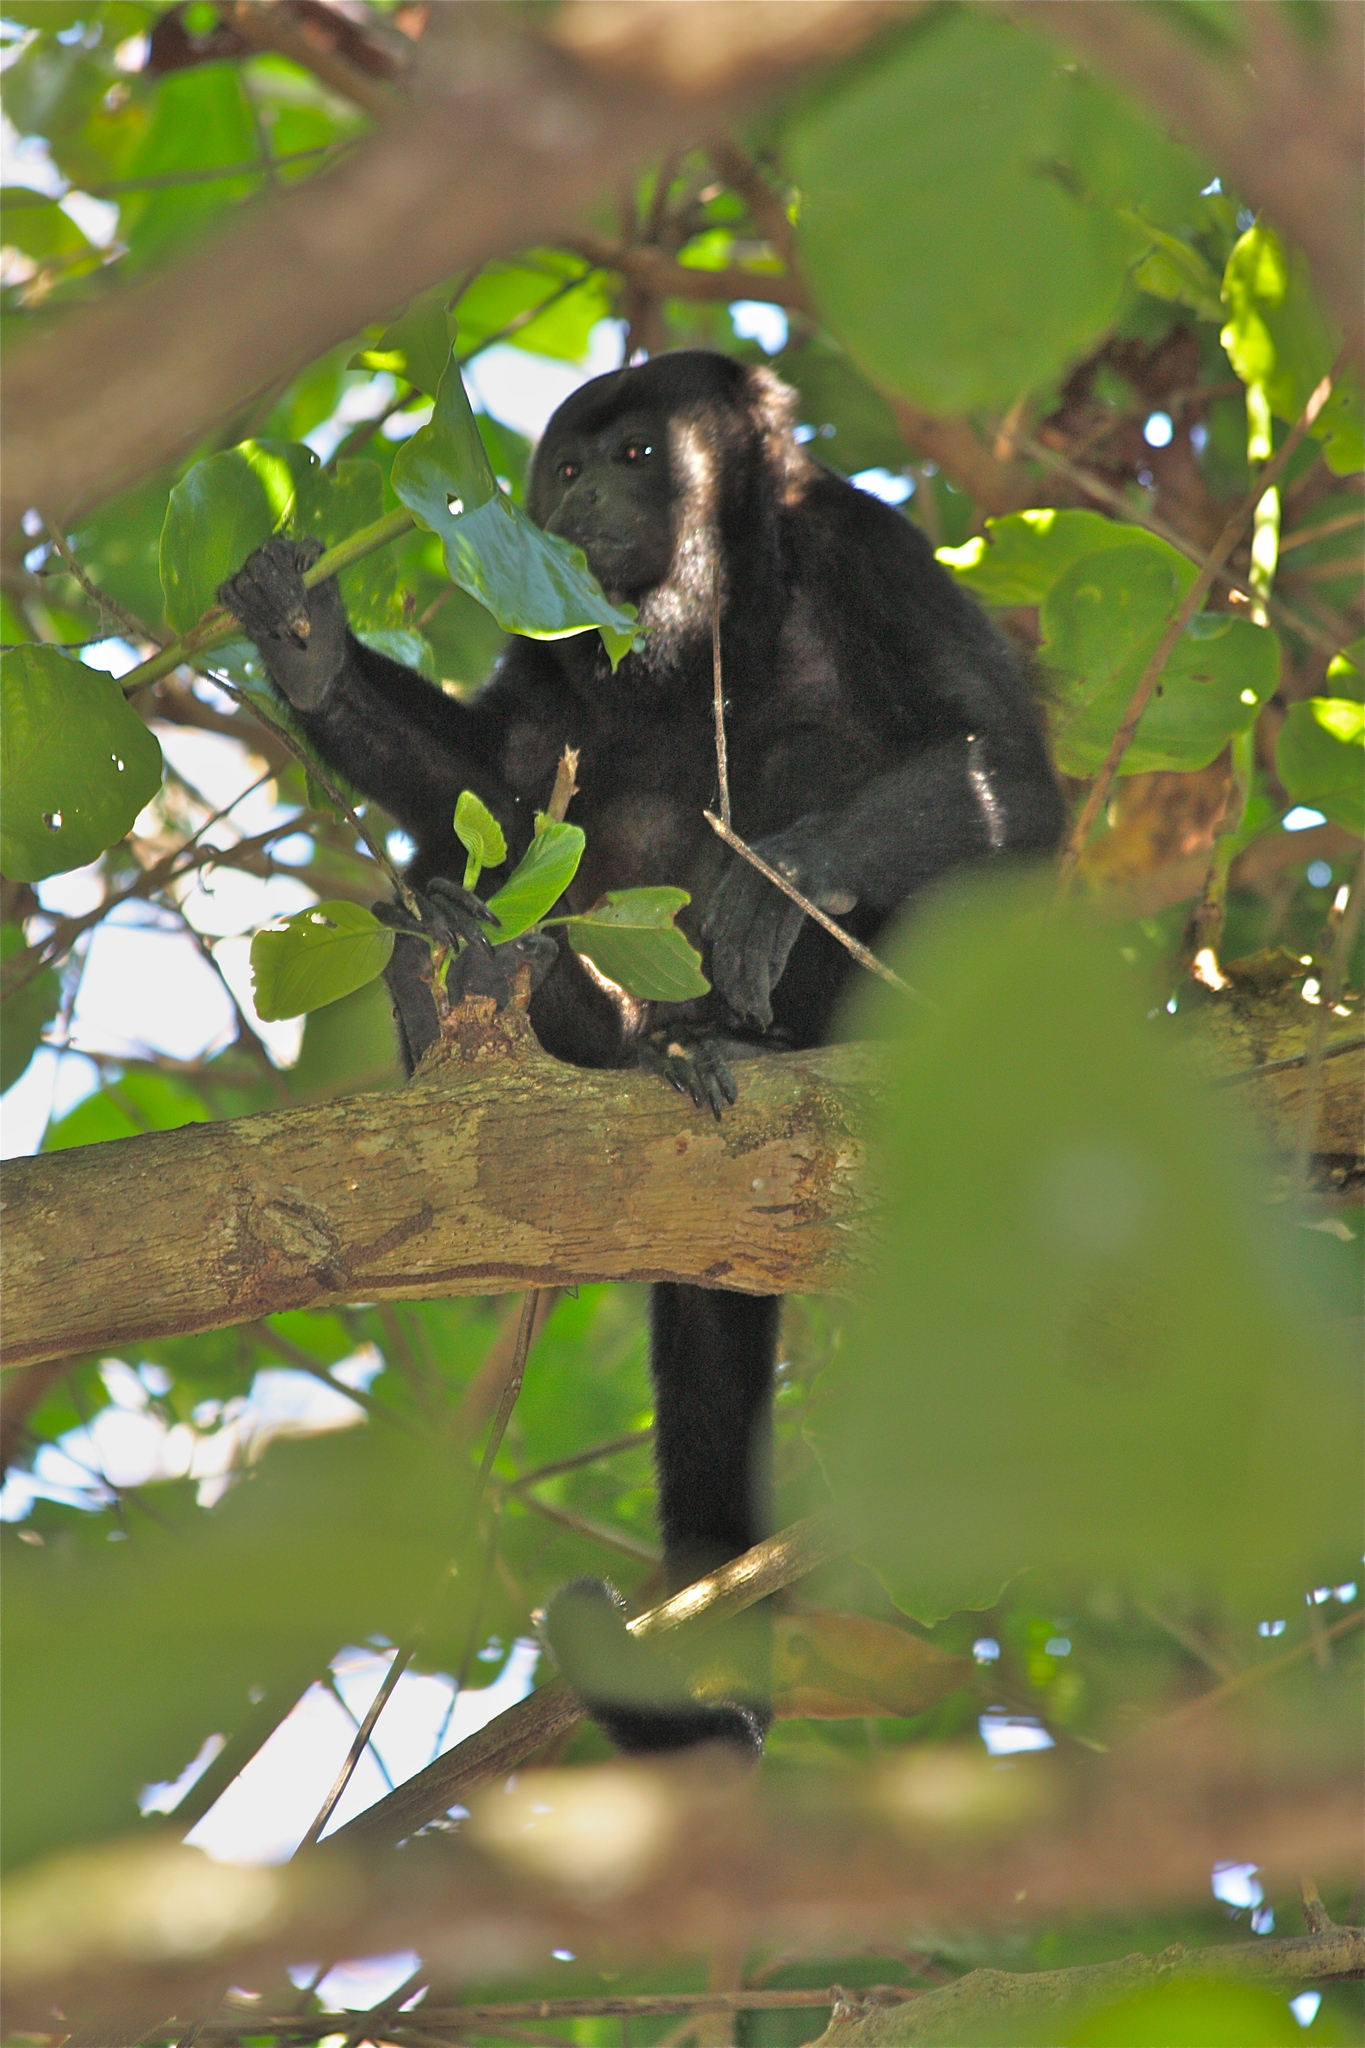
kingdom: Animalia
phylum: Chordata
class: Mammalia
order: Primates
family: Atelidae
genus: Alouatta
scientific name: Alouatta palliata
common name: Mantled howler
